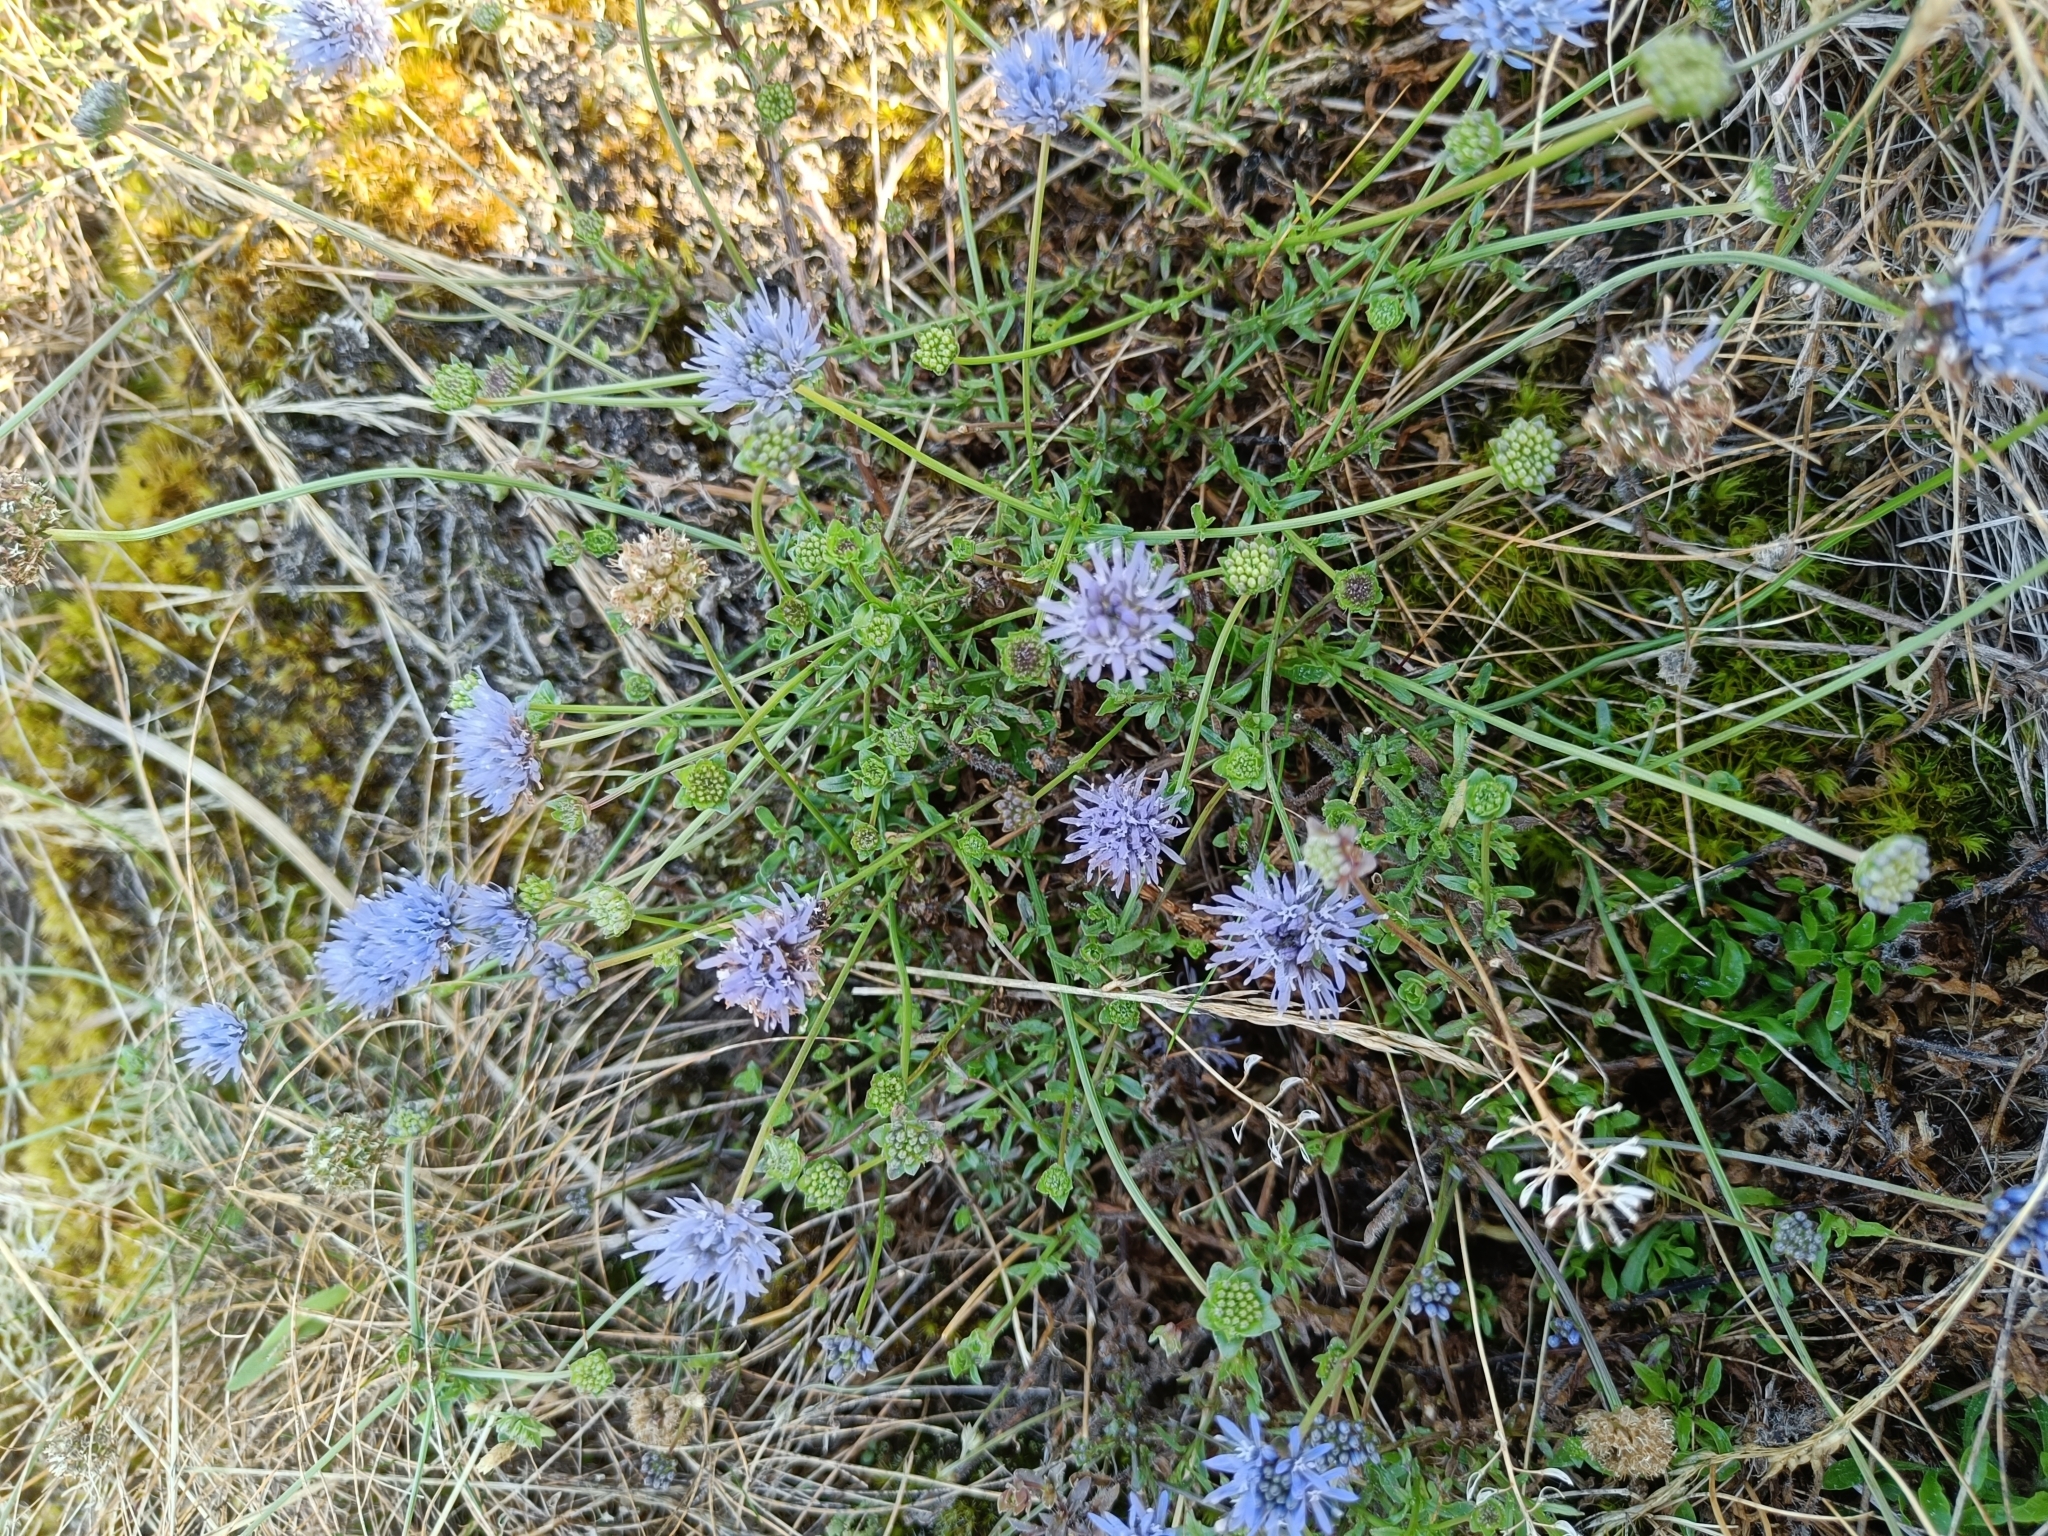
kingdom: Plantae
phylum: Tracheophyta
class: Magnoliopsida
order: Asterales
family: Campanulaceae
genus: Jasione
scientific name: Jasione montana
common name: Sheep's-bit
